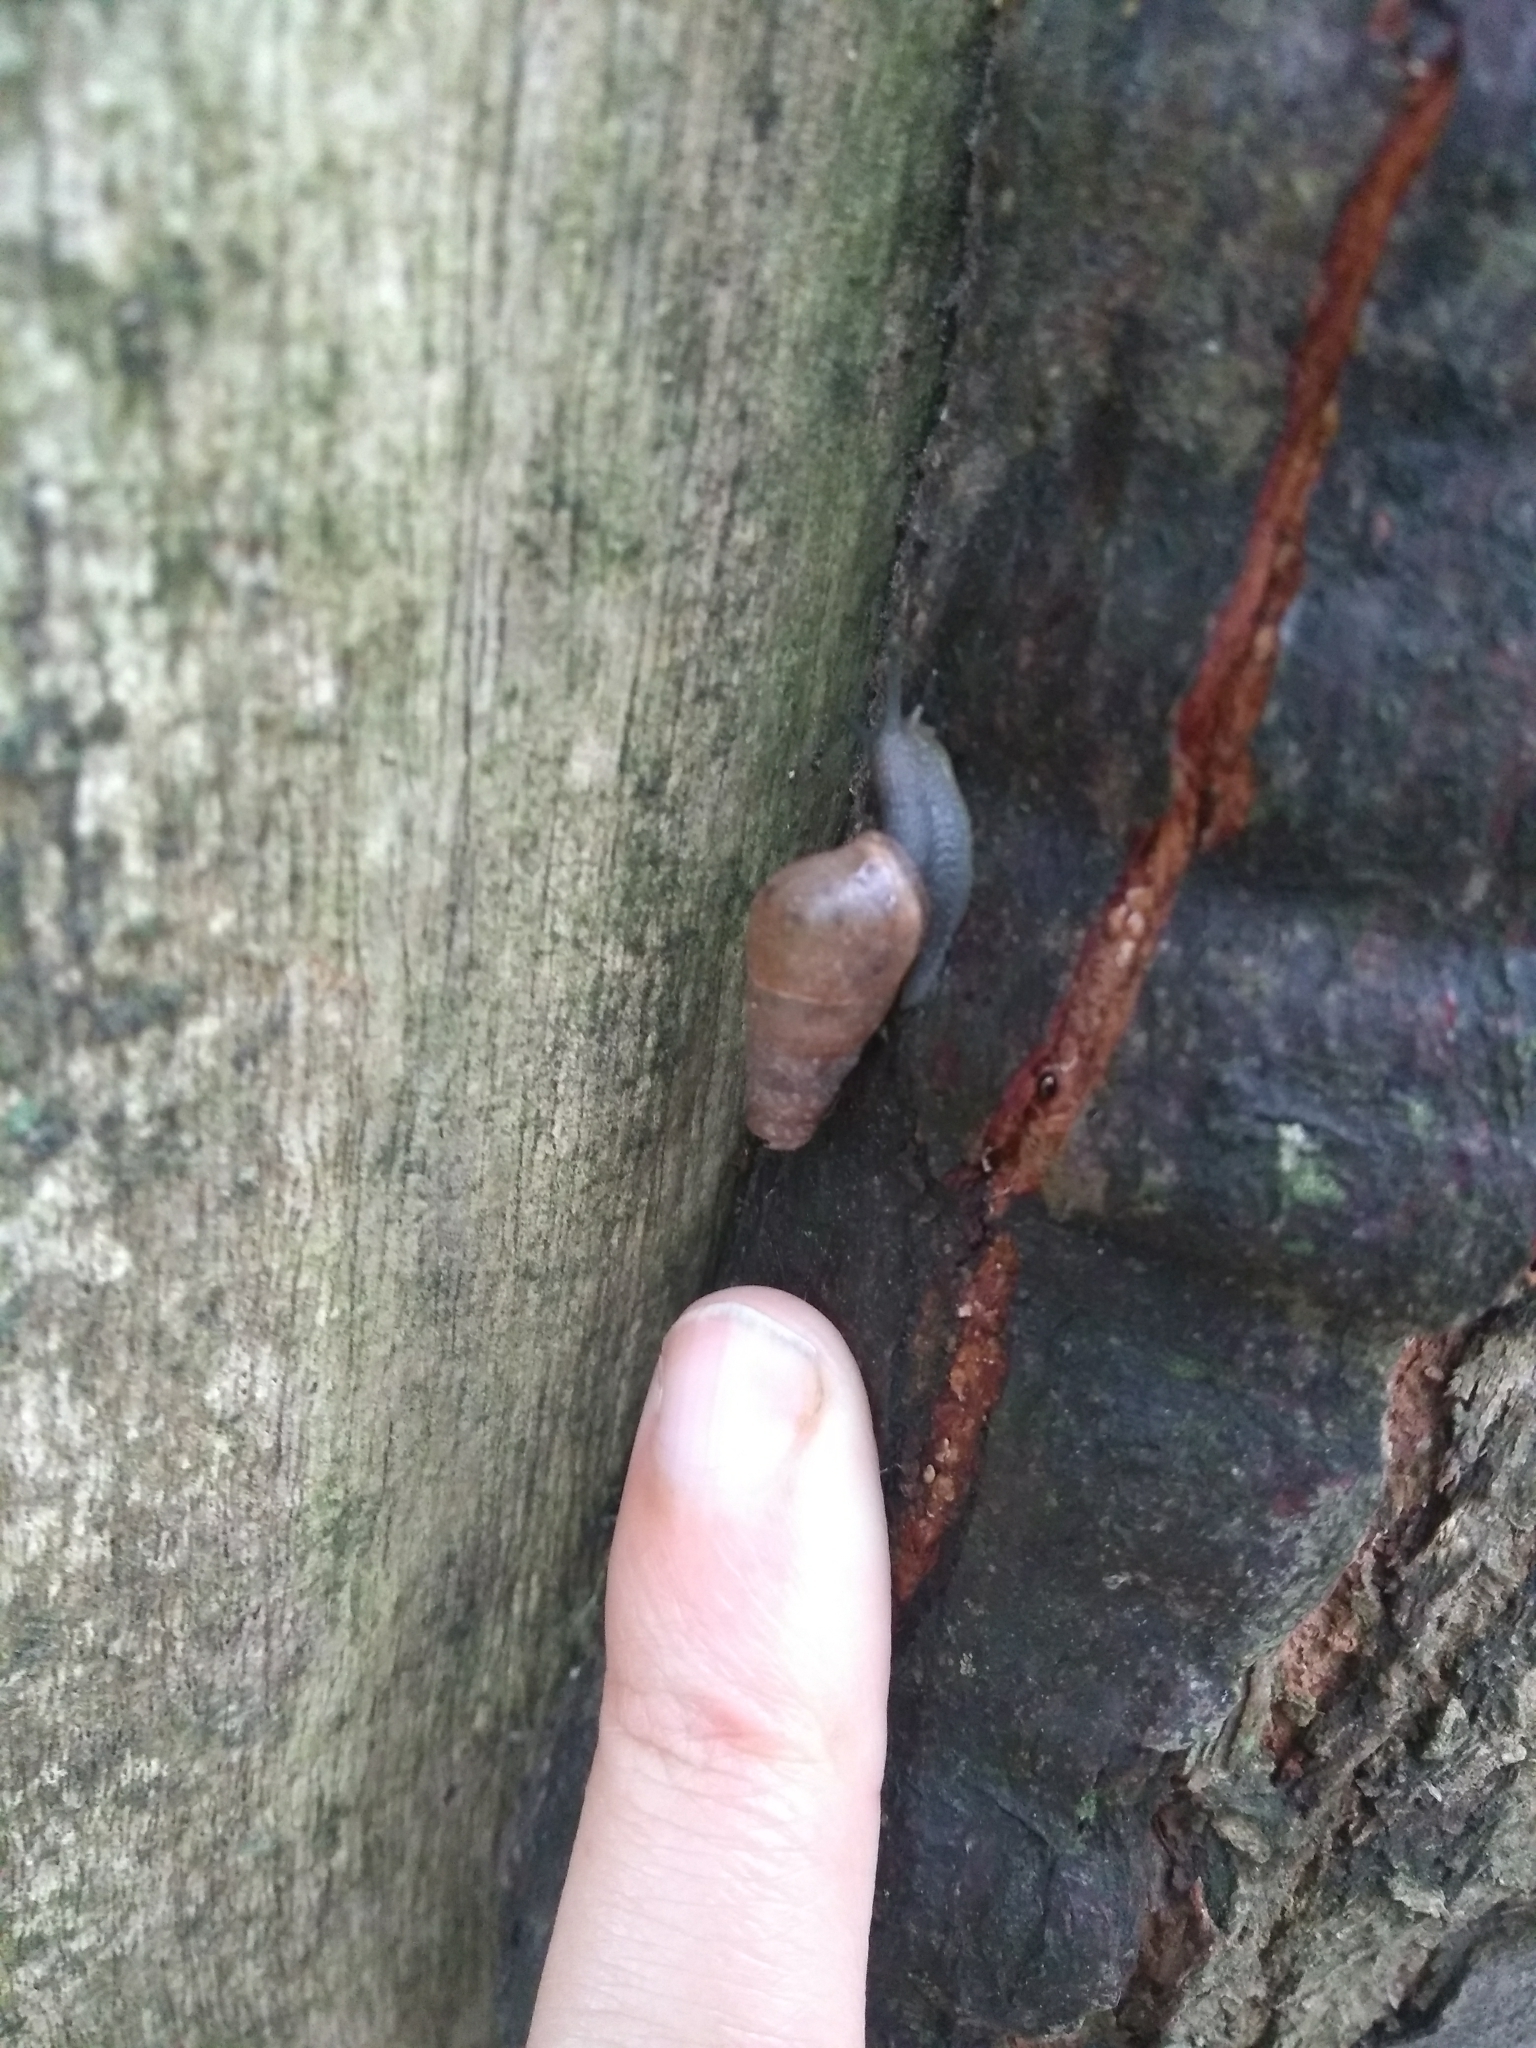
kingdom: Animalia
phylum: Mollusca
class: Gastropoda
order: Stylommatophora
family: Achatinidae
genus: Rumina
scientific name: Rumina decollata
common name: Decollate snail
